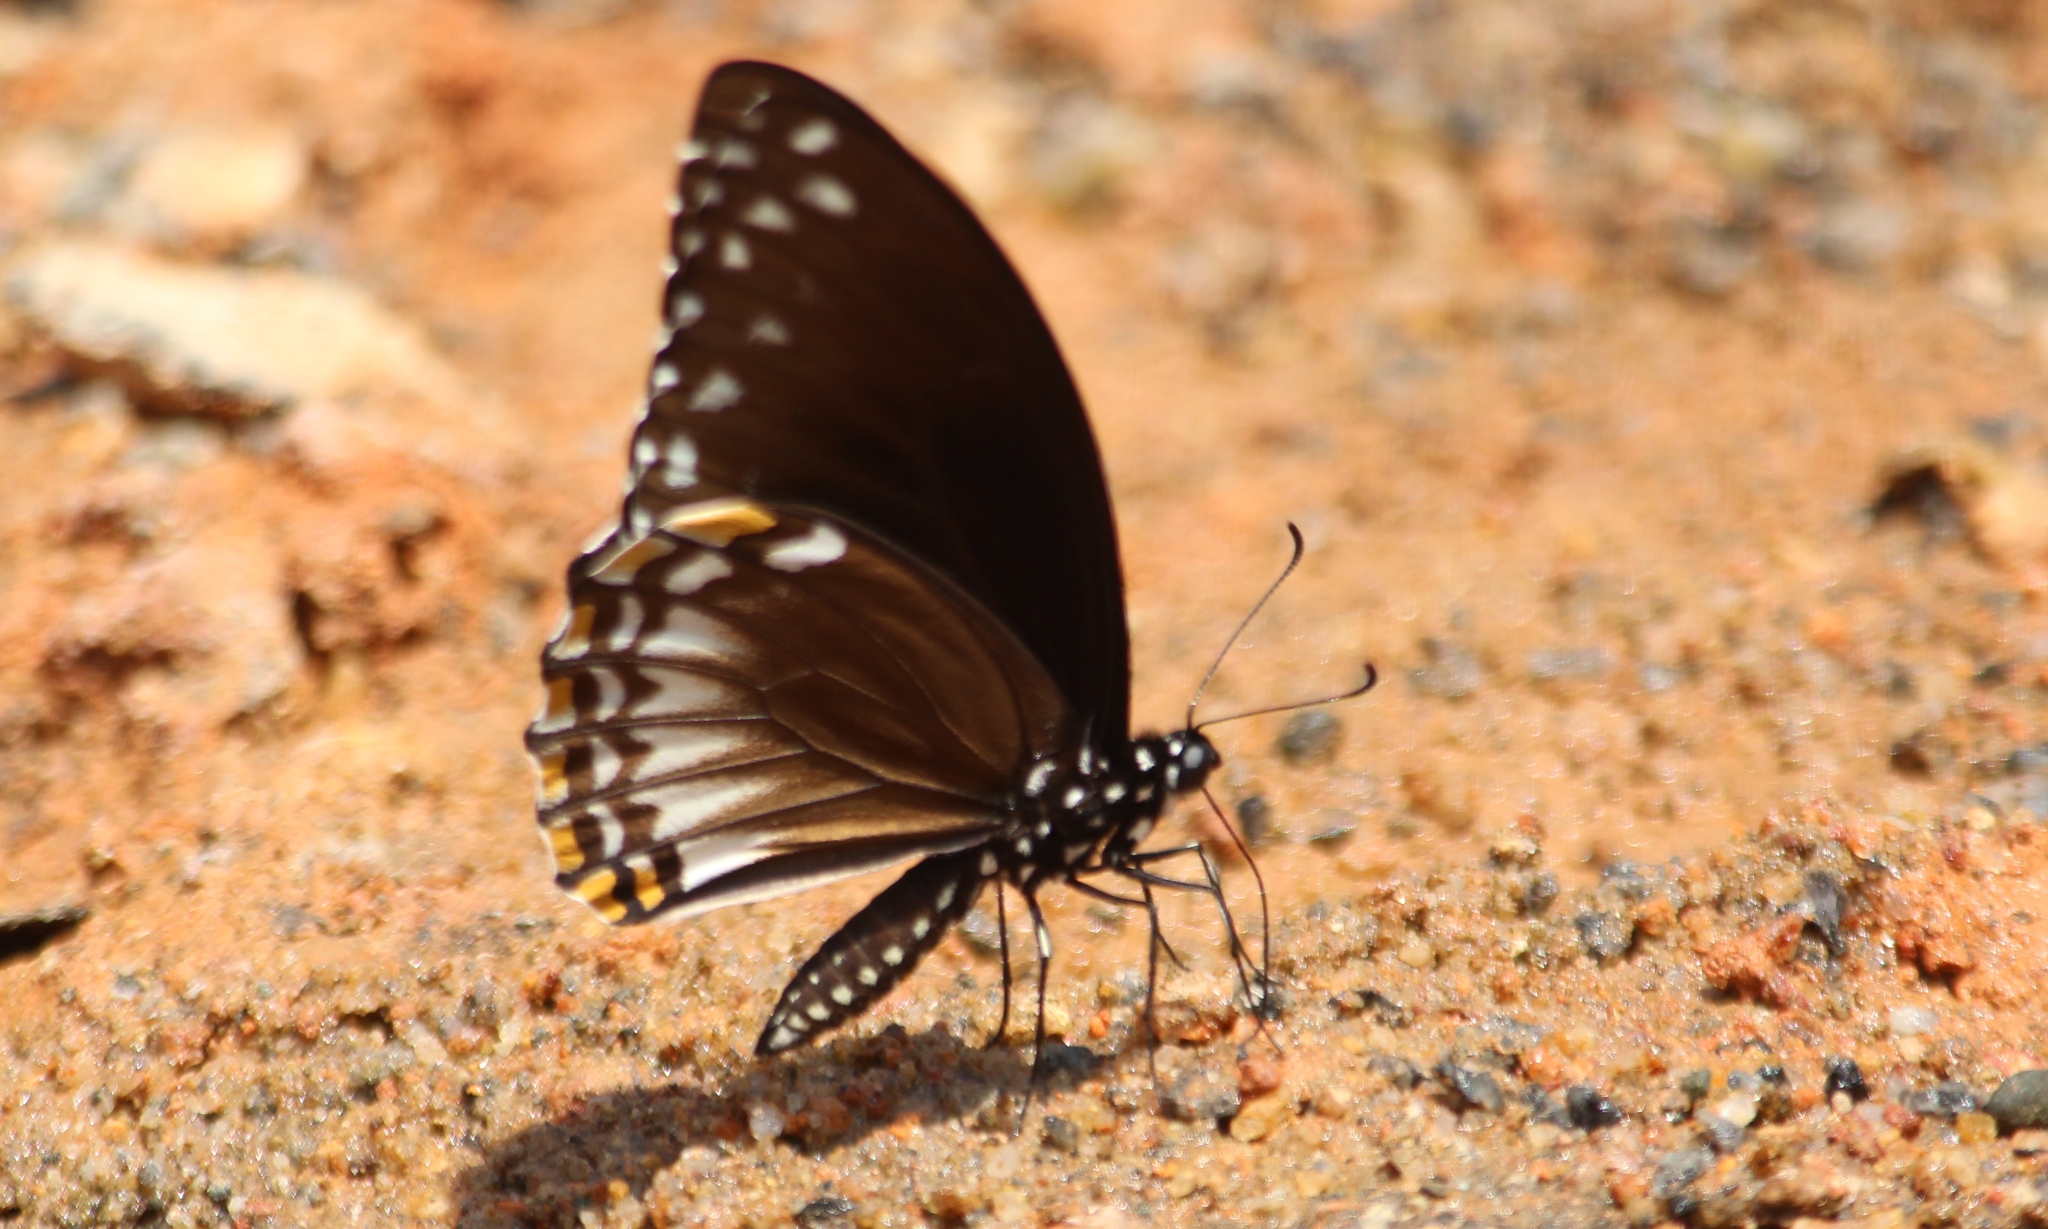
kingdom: Animalia
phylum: Arthropoda
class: Insecta
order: Lepidoptera
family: Papilionidae
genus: Chilasa
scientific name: Chilasa clytia
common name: Common mime
